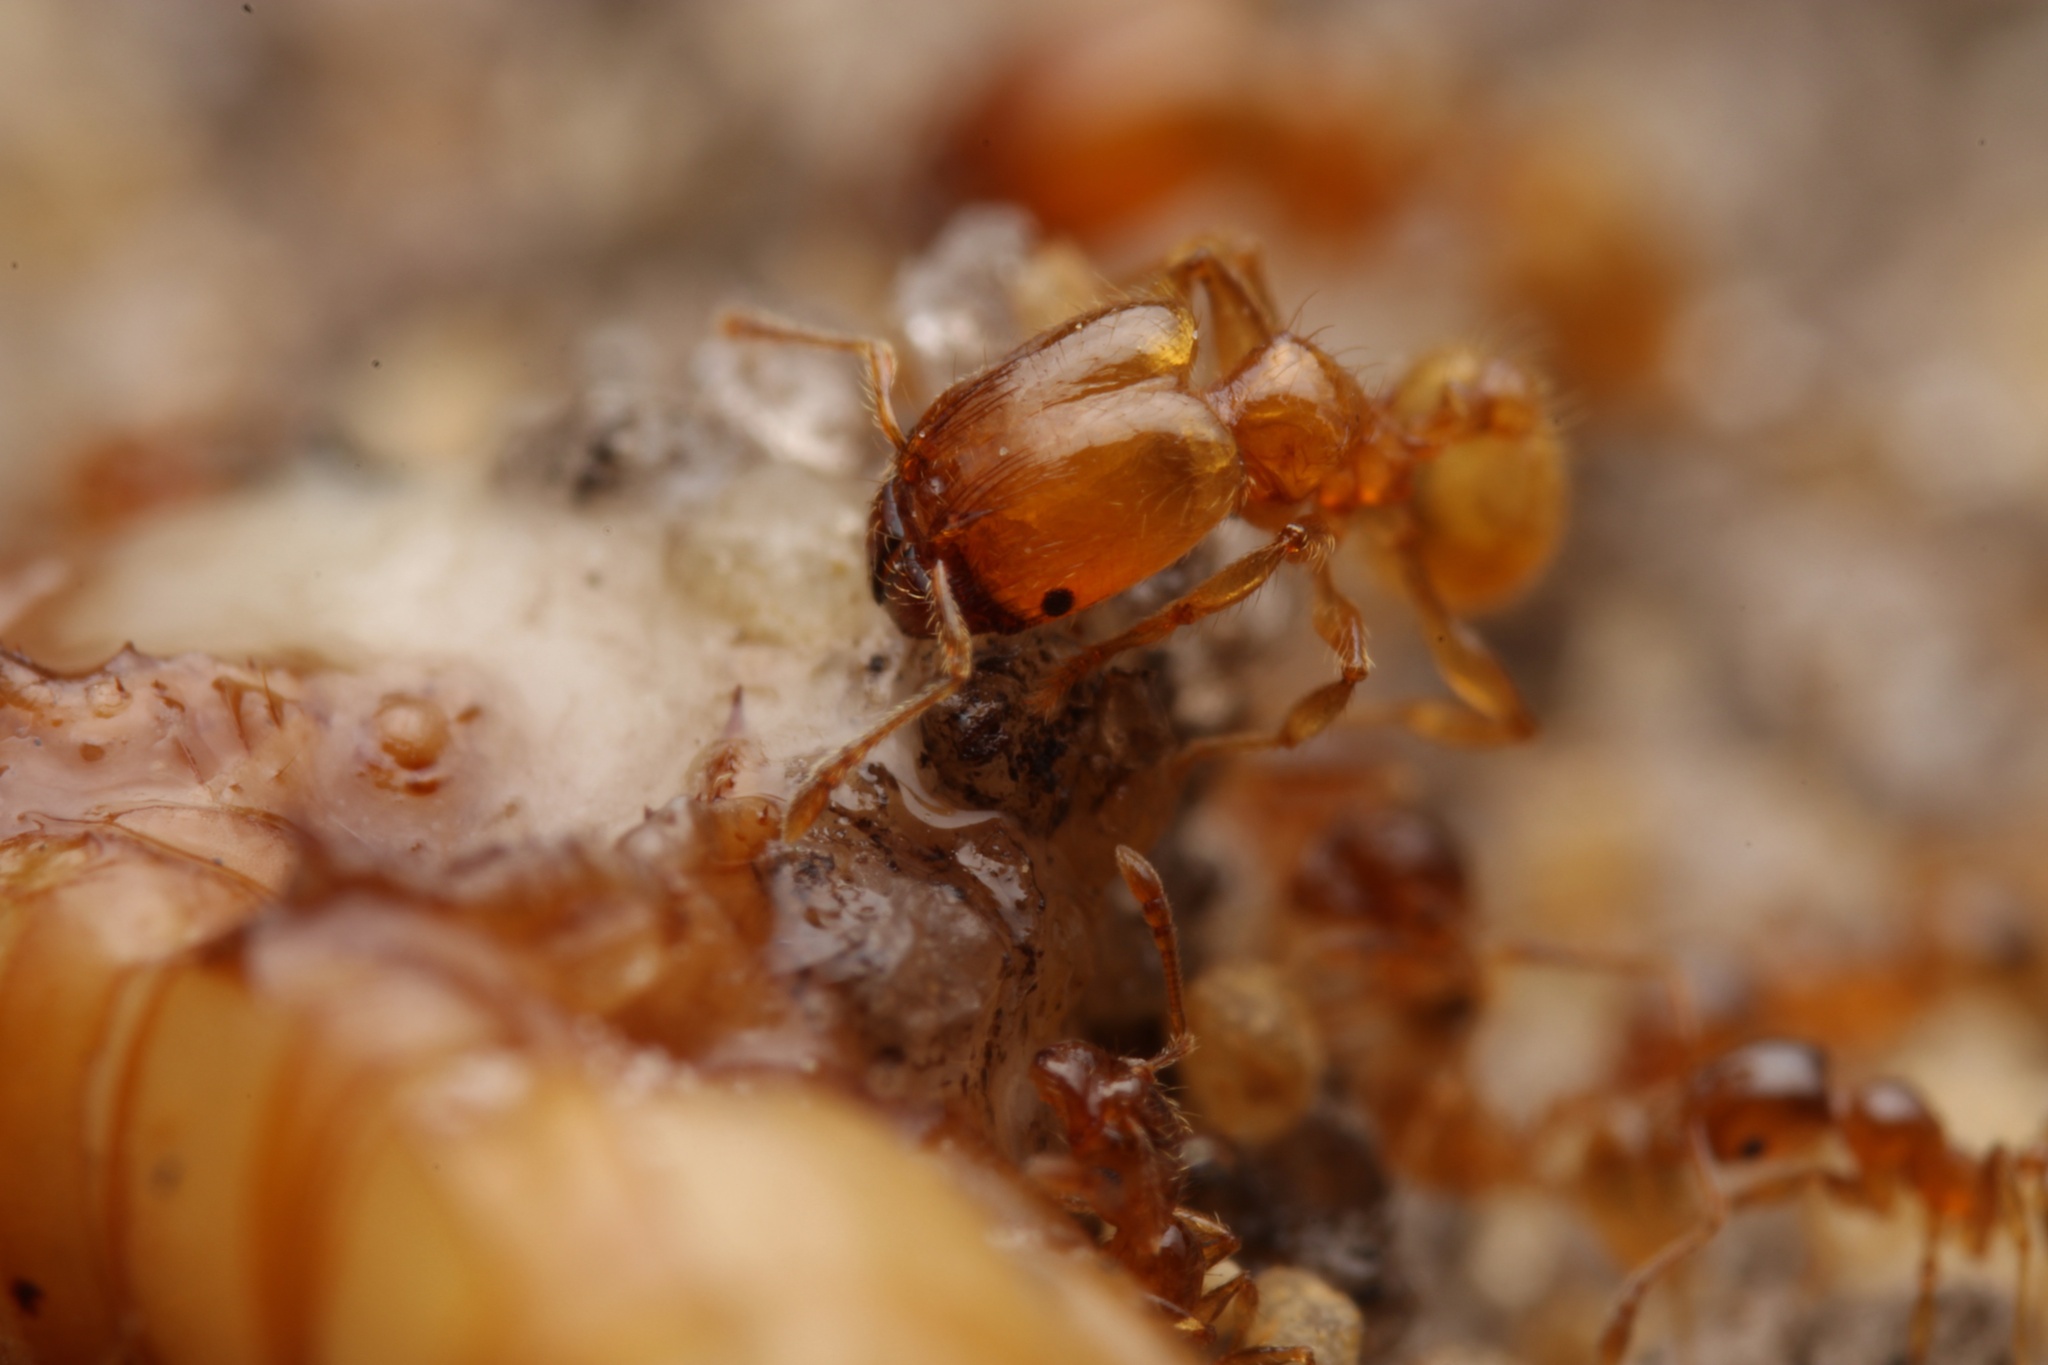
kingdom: Animalia
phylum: Arthropoda
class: Insecta
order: Hymenoptera
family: Formicidae
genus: Pheidole
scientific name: Pheidole tysoni
